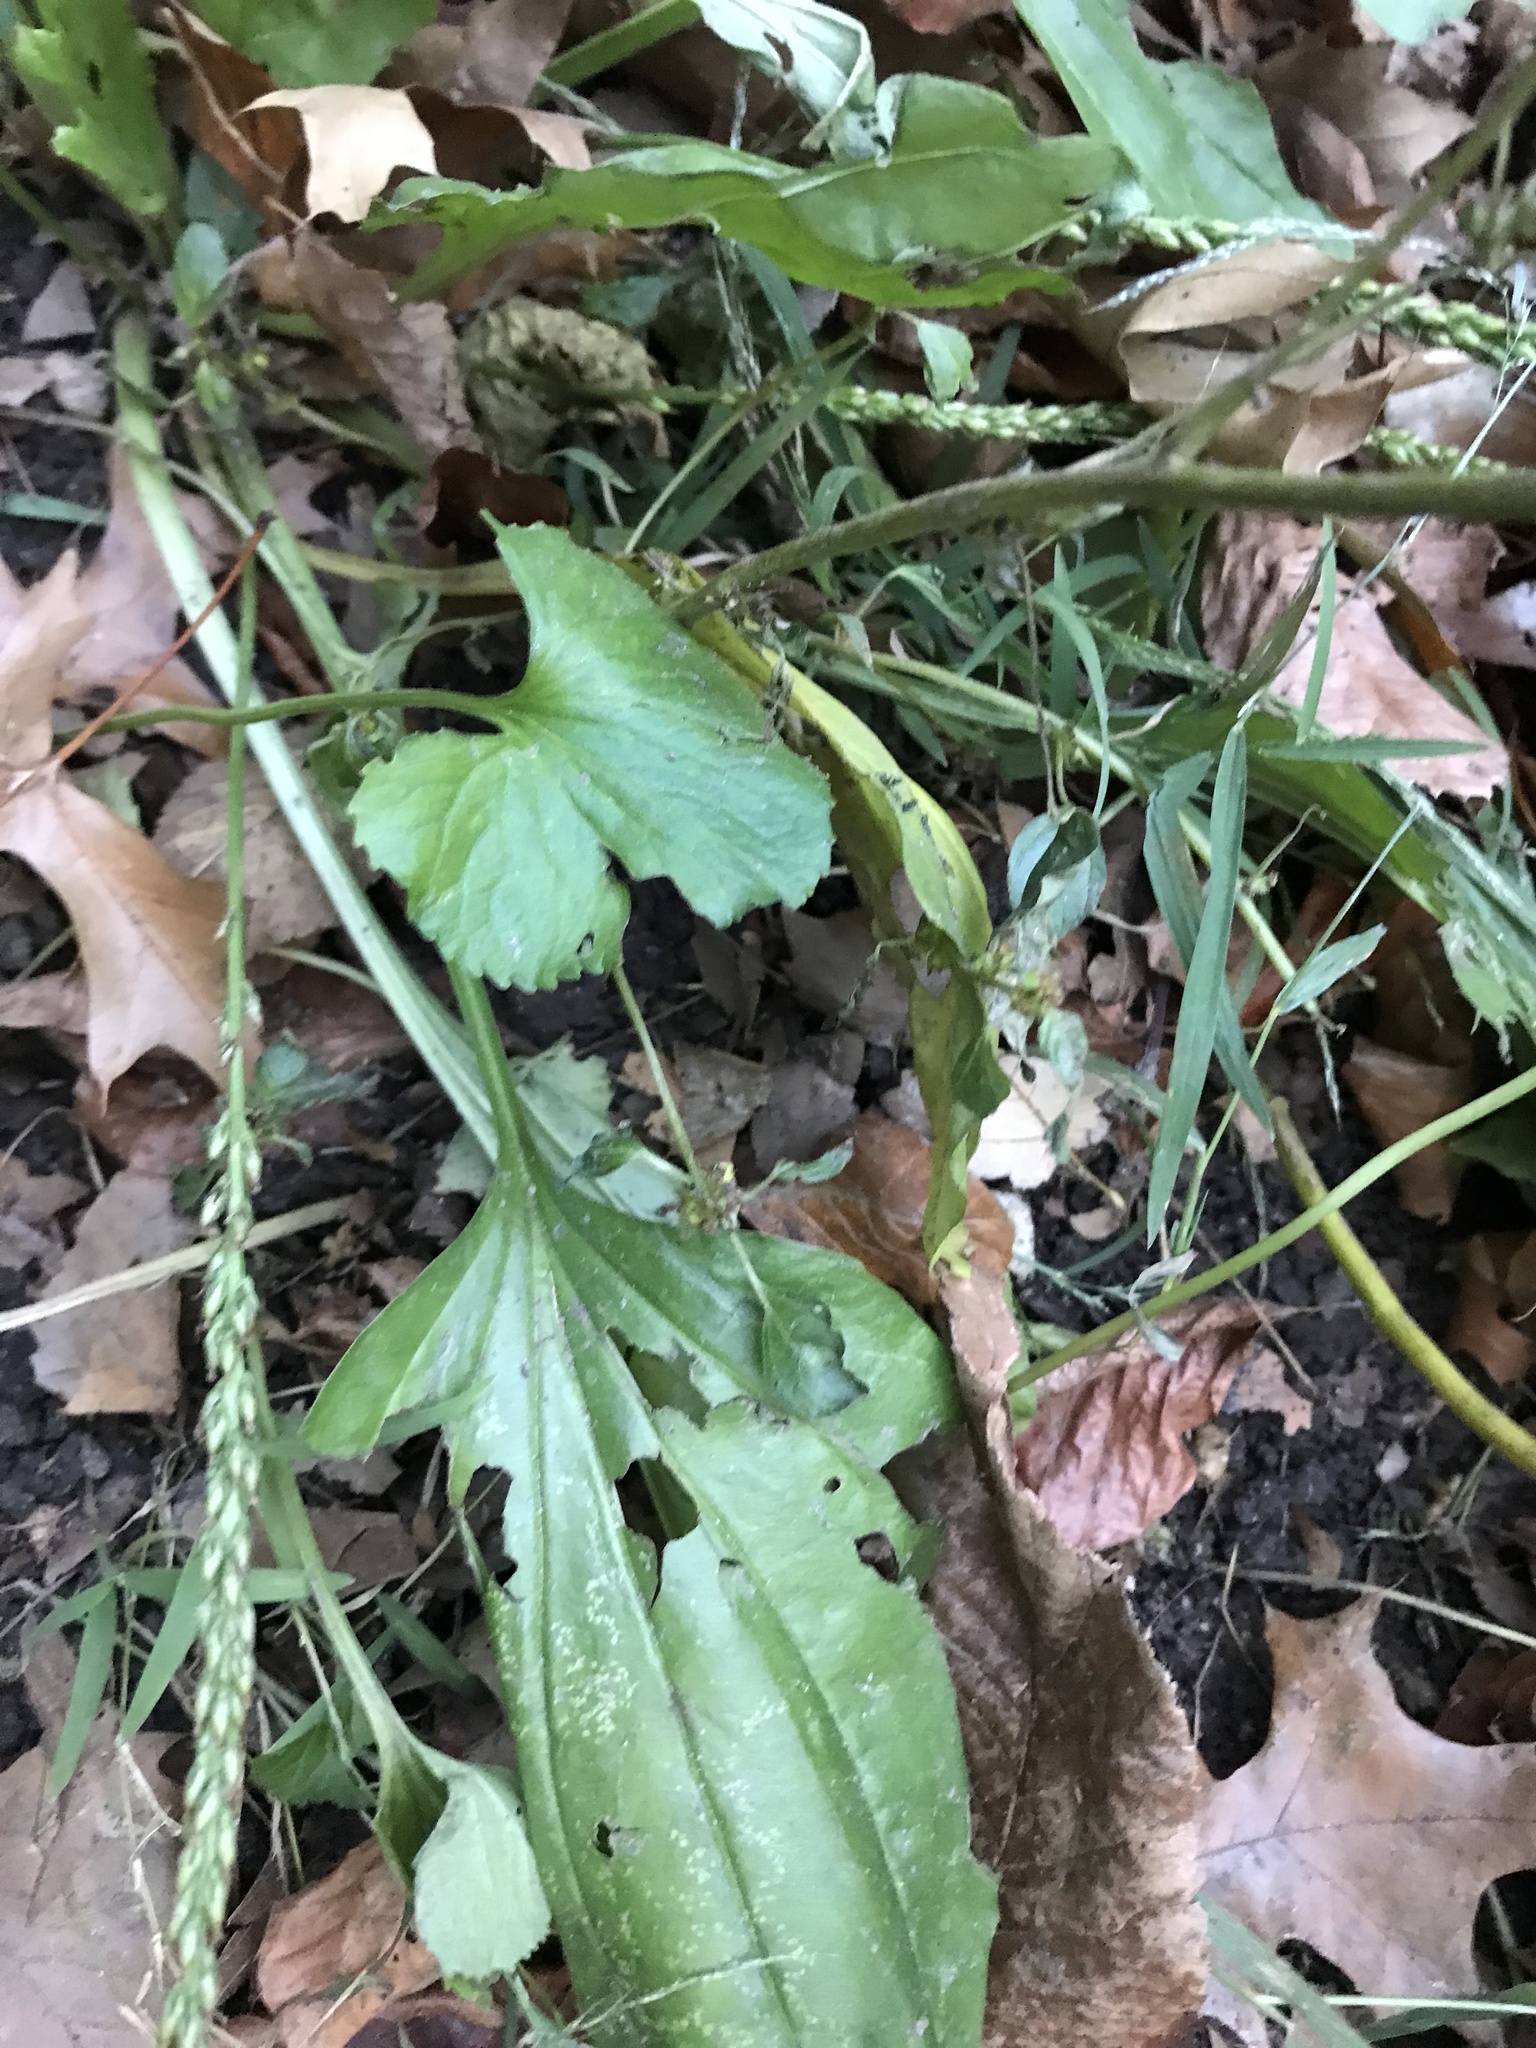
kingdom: Plantae
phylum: Tracheophyta
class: Magnoliopsida
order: Lamiales
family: Plantaginaceae
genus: Plantago
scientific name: Plantago rugelii
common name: American plantain
